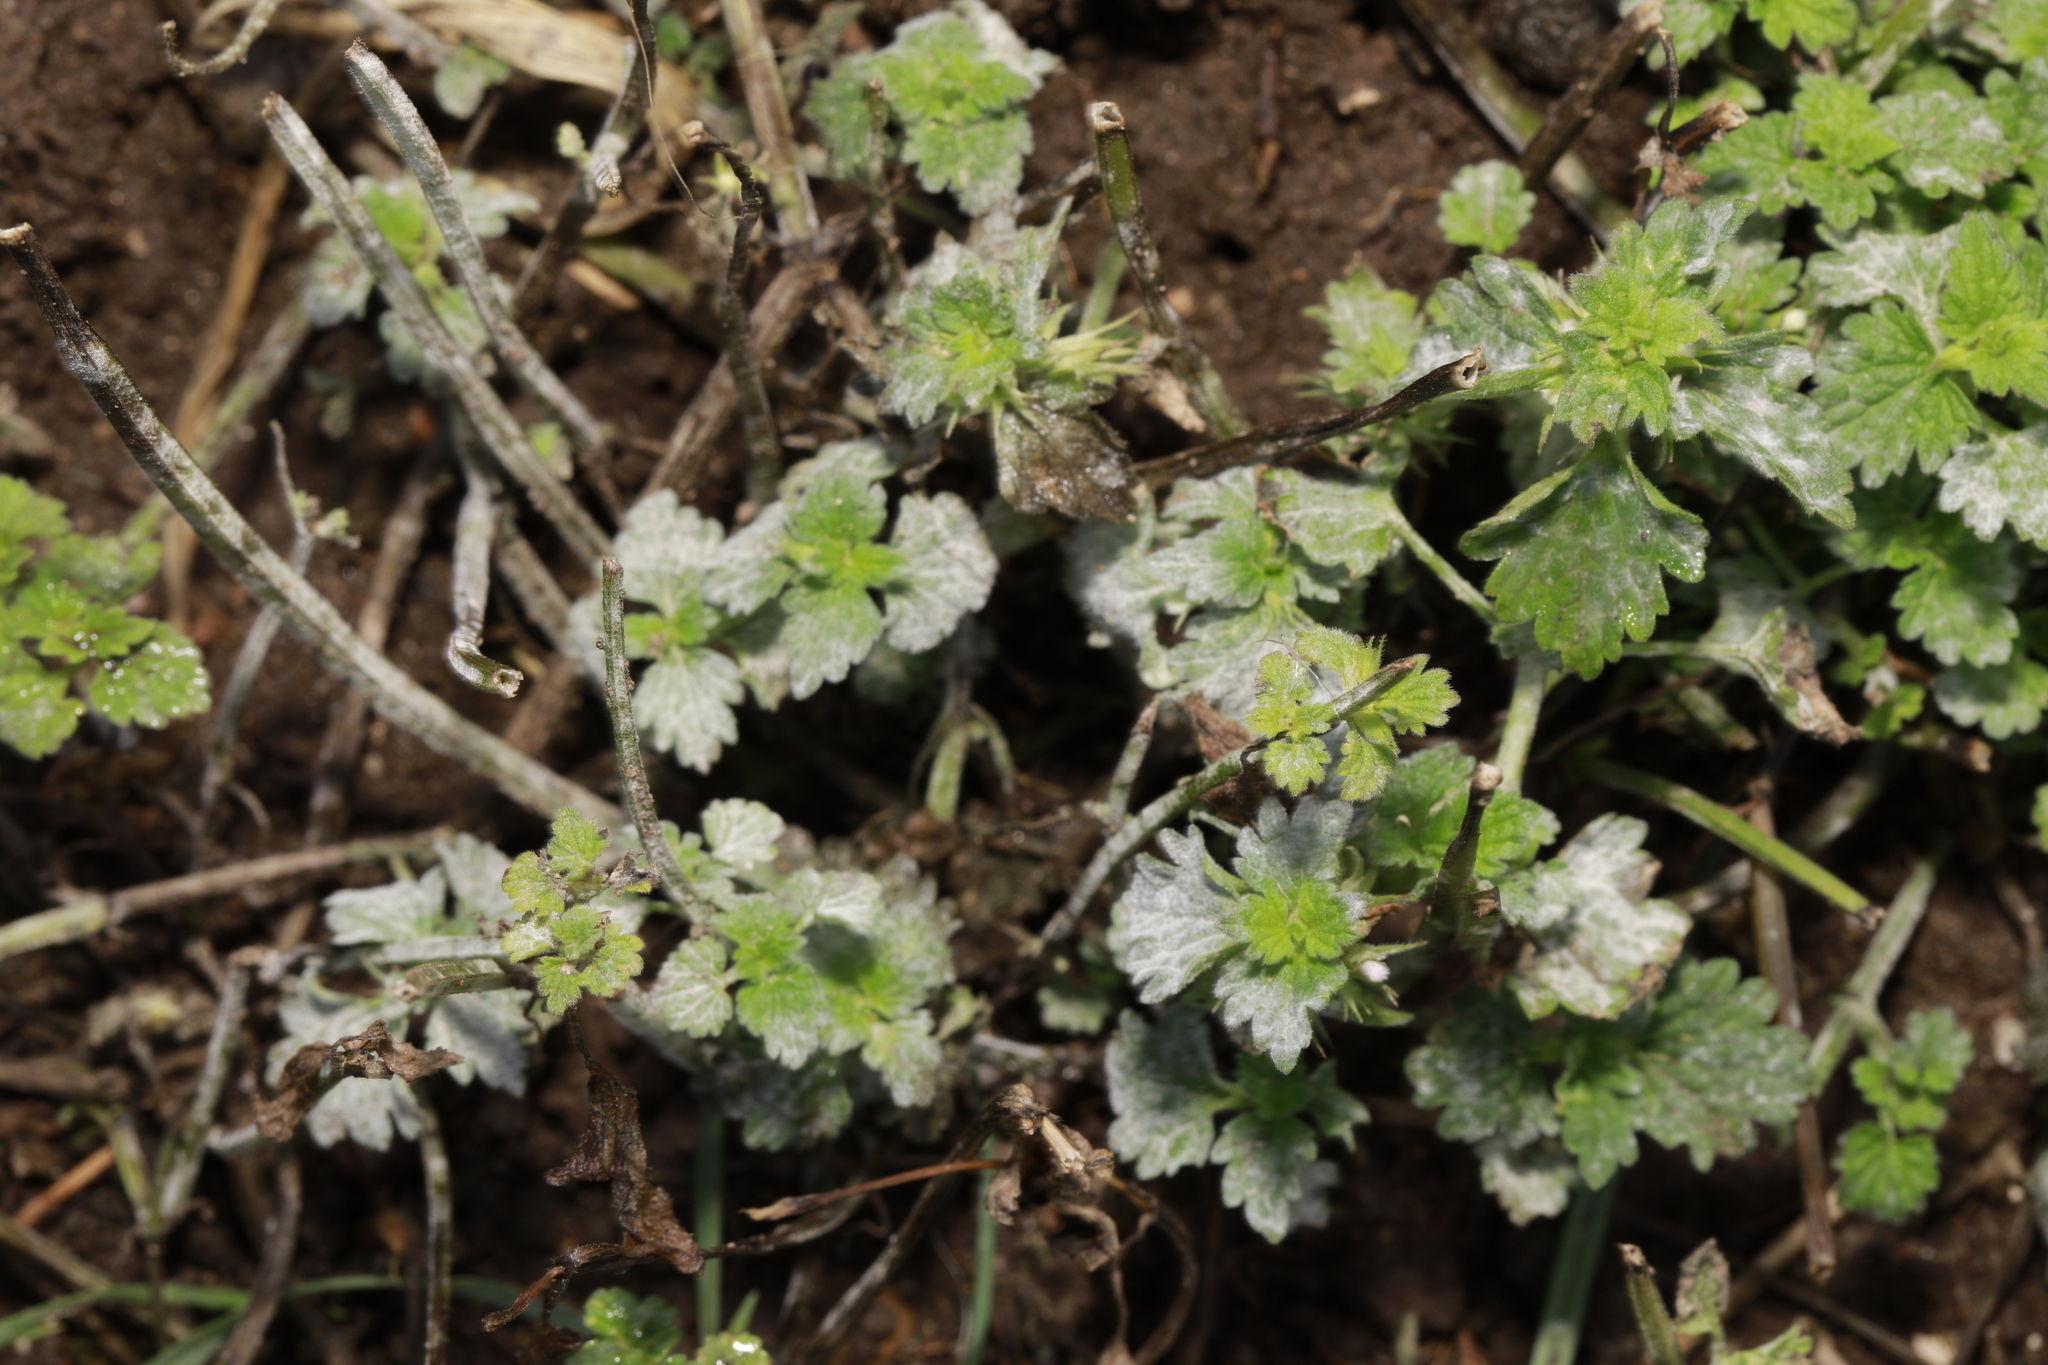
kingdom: Fungi
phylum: Ascomycota
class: Leotiomycetes
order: Helotiales
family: Erysiphaceae
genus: Neoerysiphe
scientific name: Neoerysiphe galeopsidis
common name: Mint mildew
